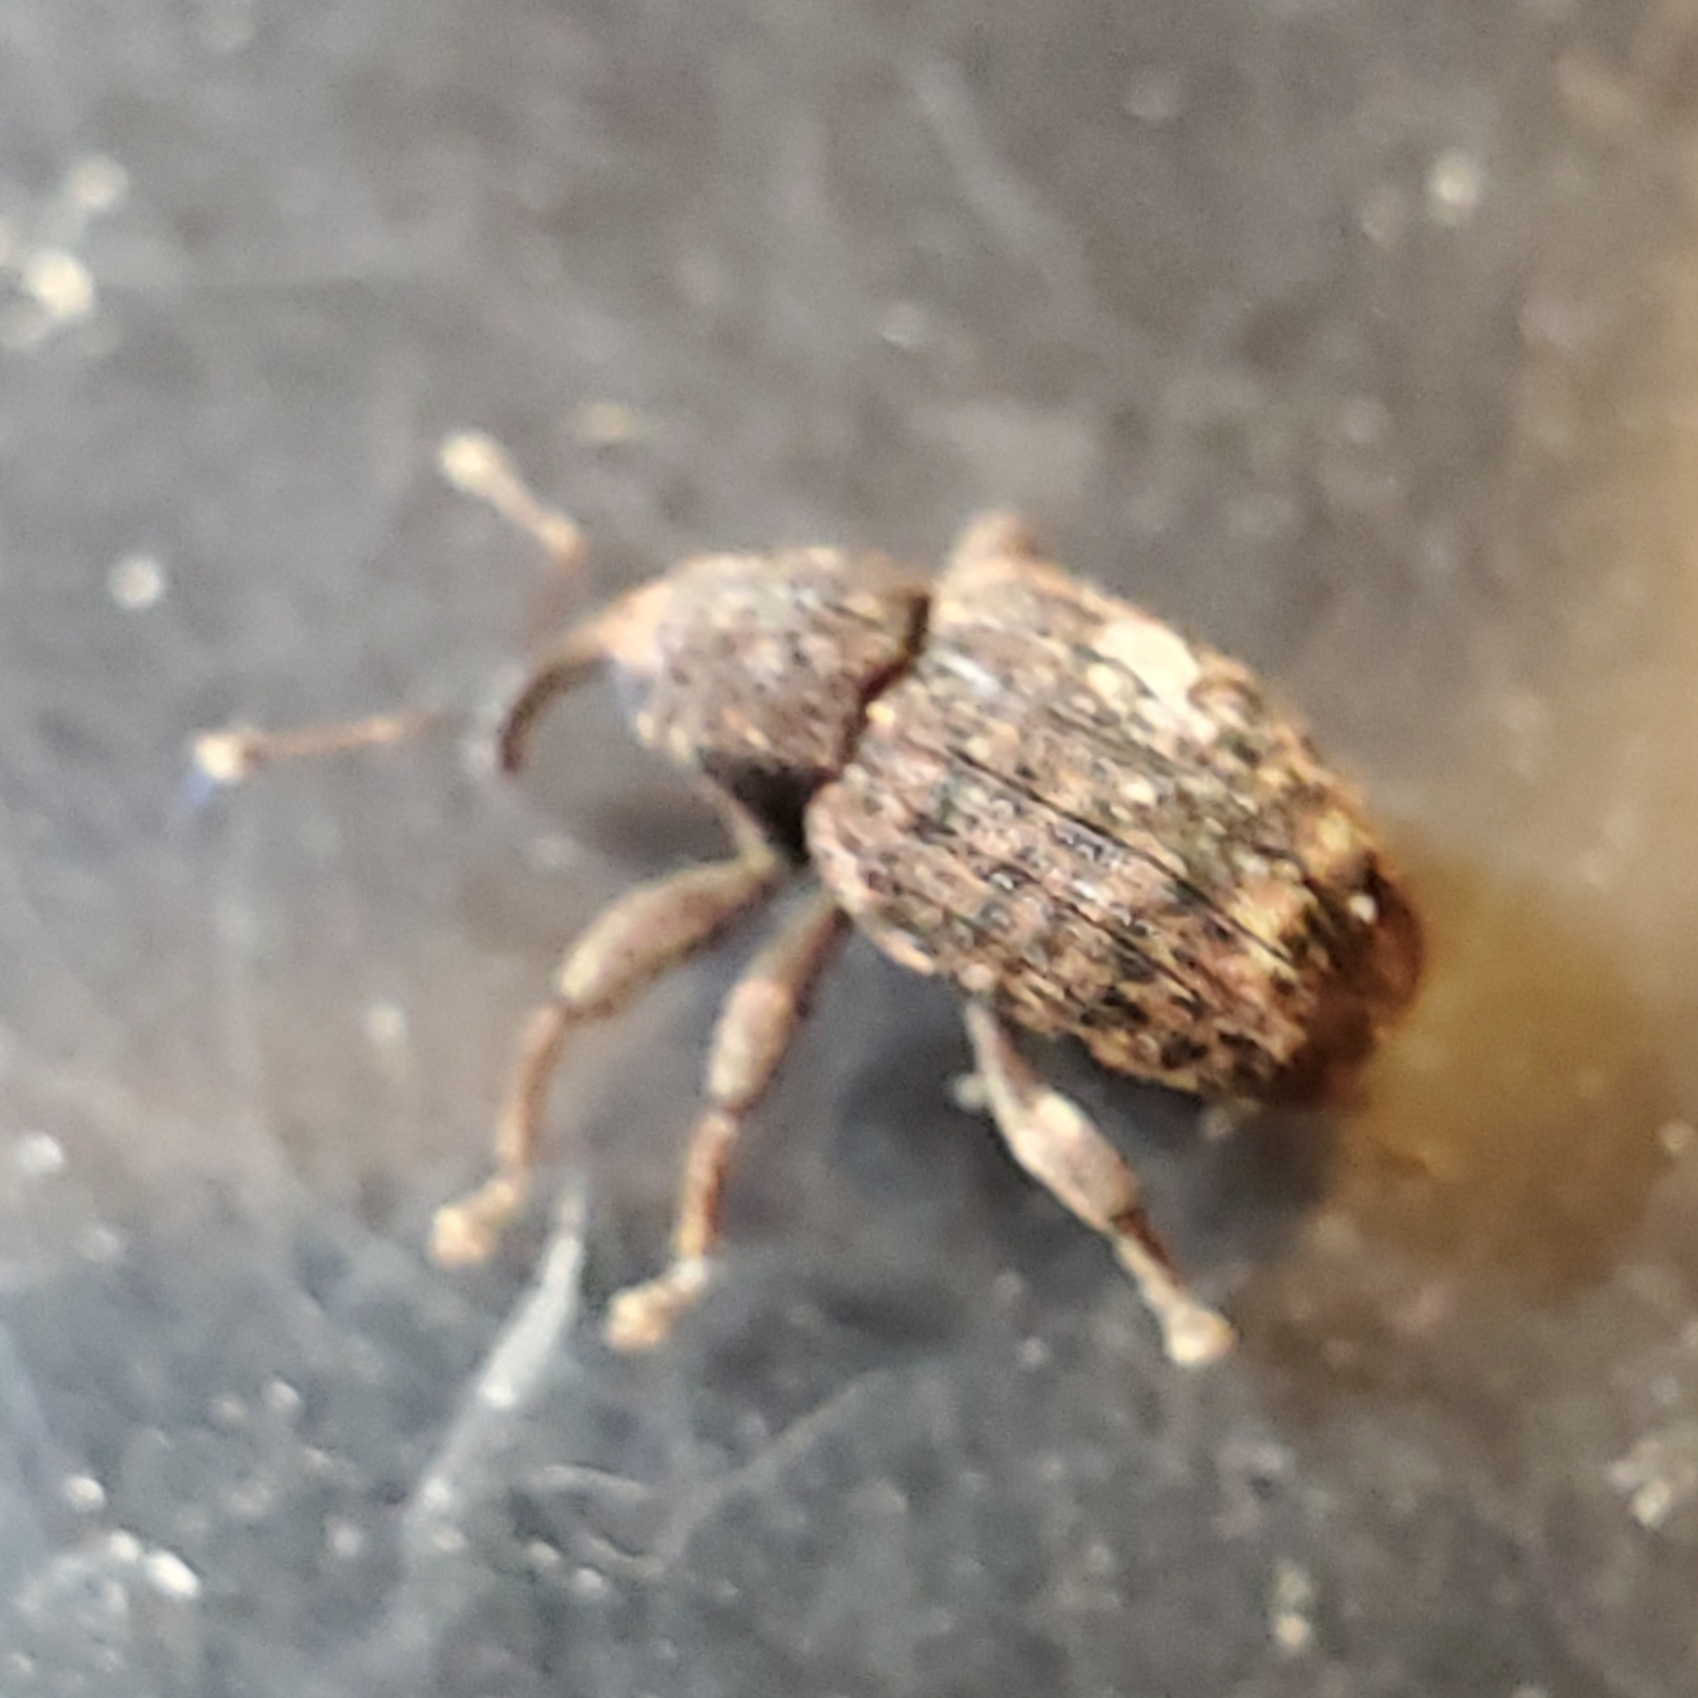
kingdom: Animalia
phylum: Arthropoda
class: Insecta
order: Coleoptera
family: Curculionidae
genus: Conotrachelus
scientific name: Conotrachelus posticatus
